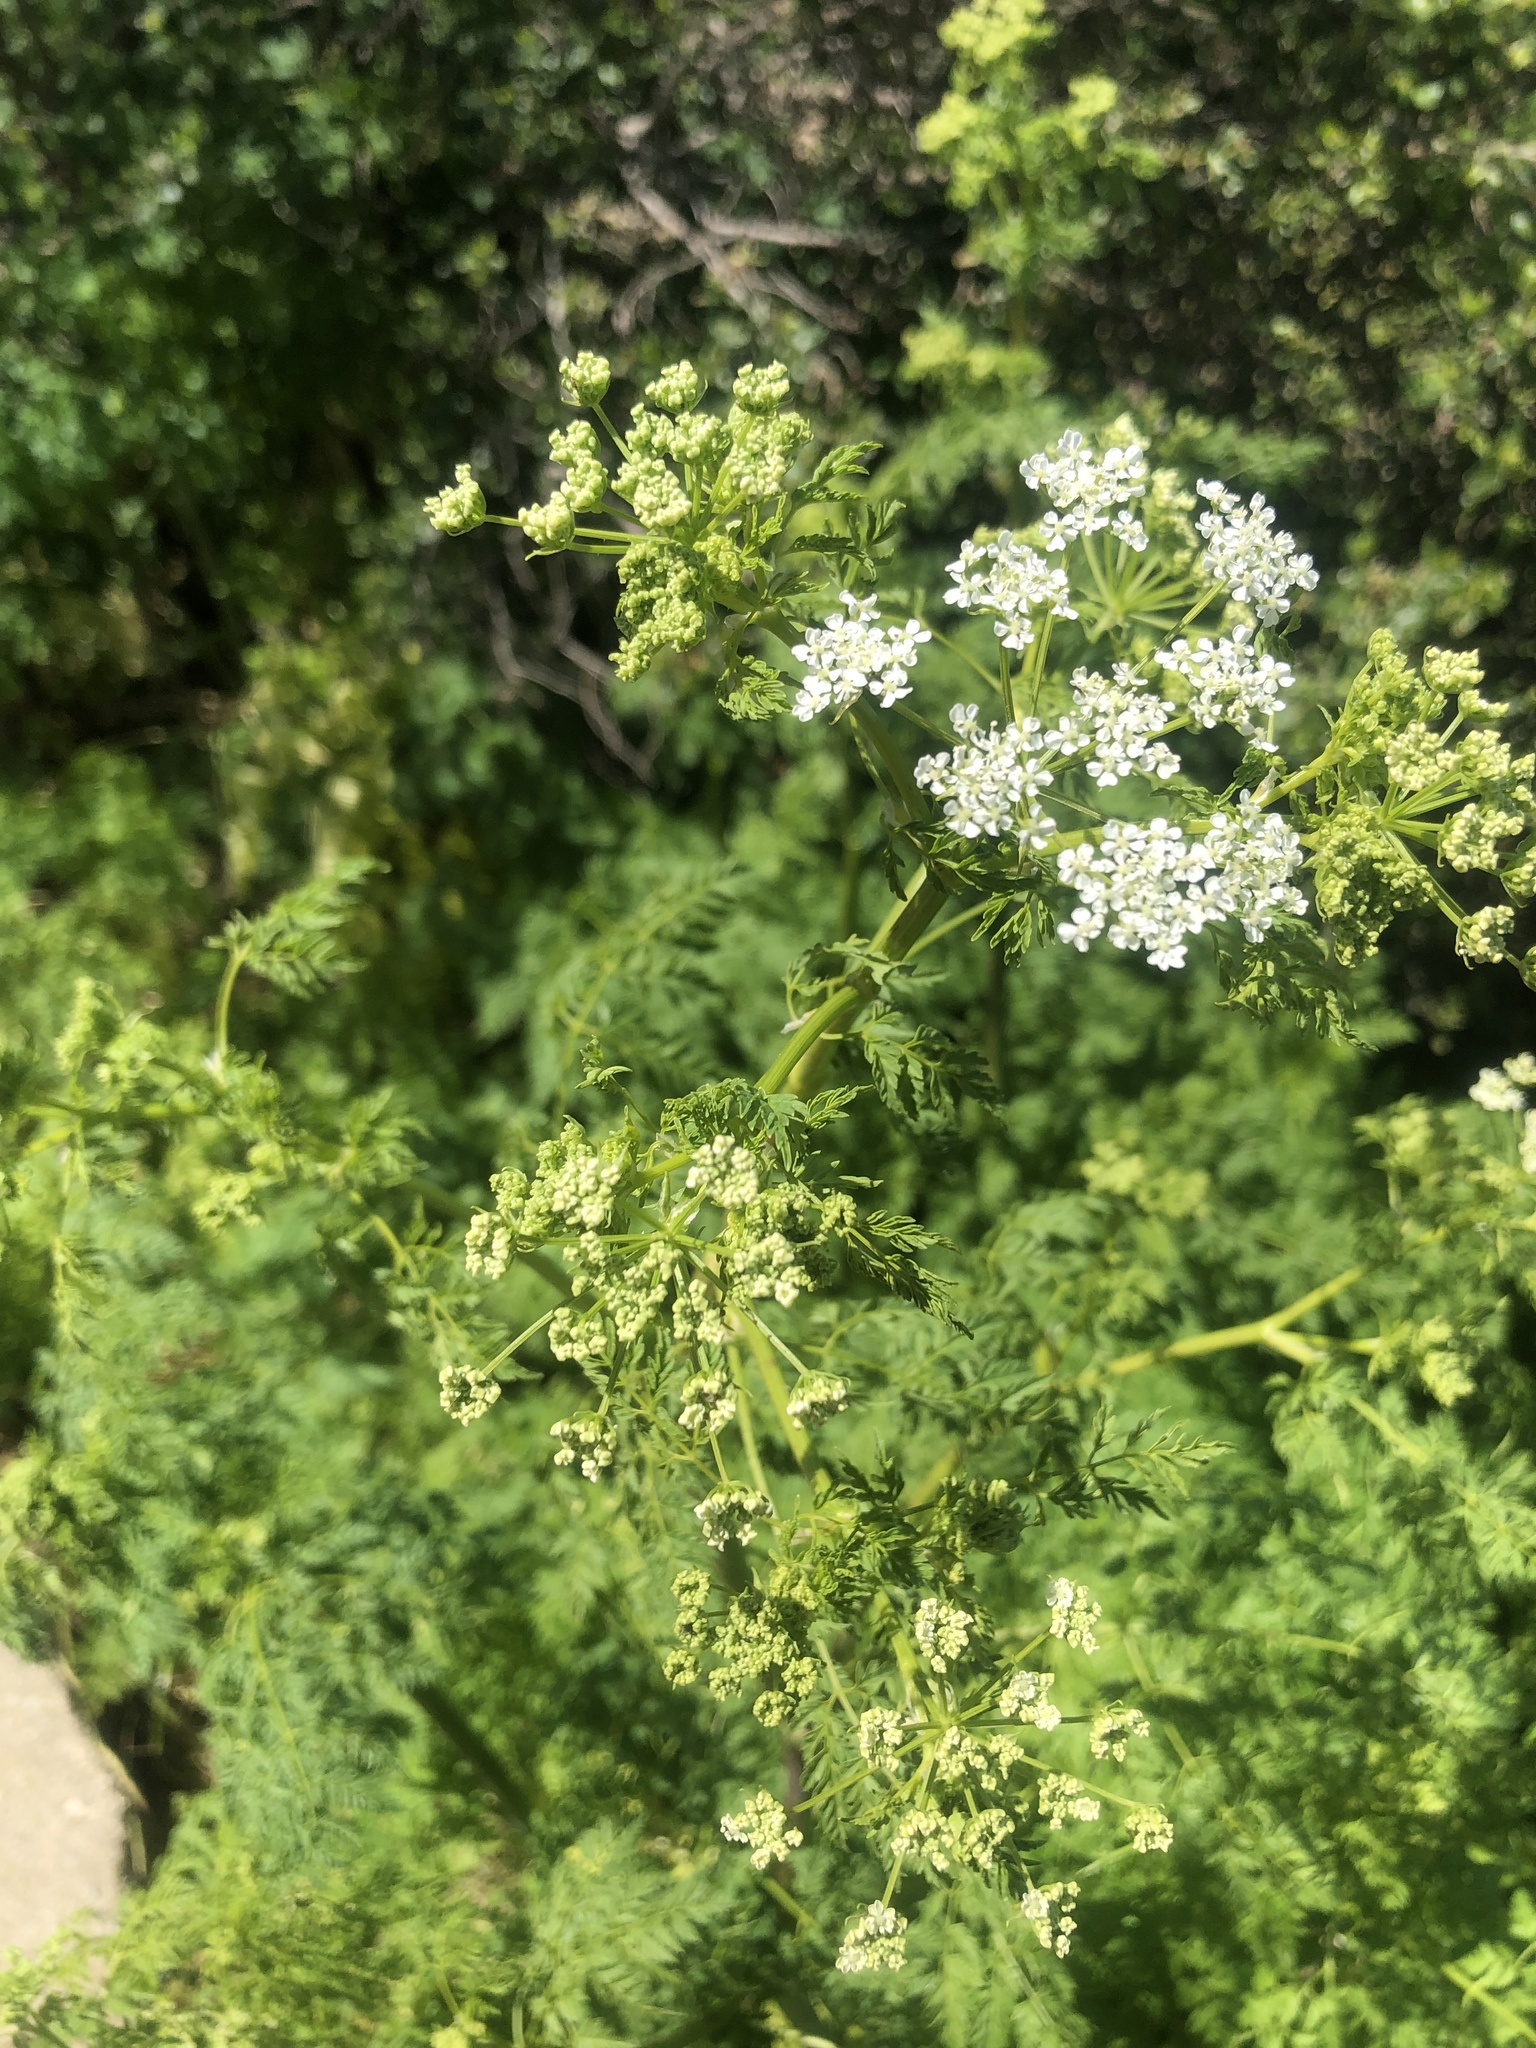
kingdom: Plantae
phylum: Tracheophyta
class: Magnoliopsida
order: Apiales
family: Apiaceae
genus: Conium
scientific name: Conium maculatum
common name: Hemlock
